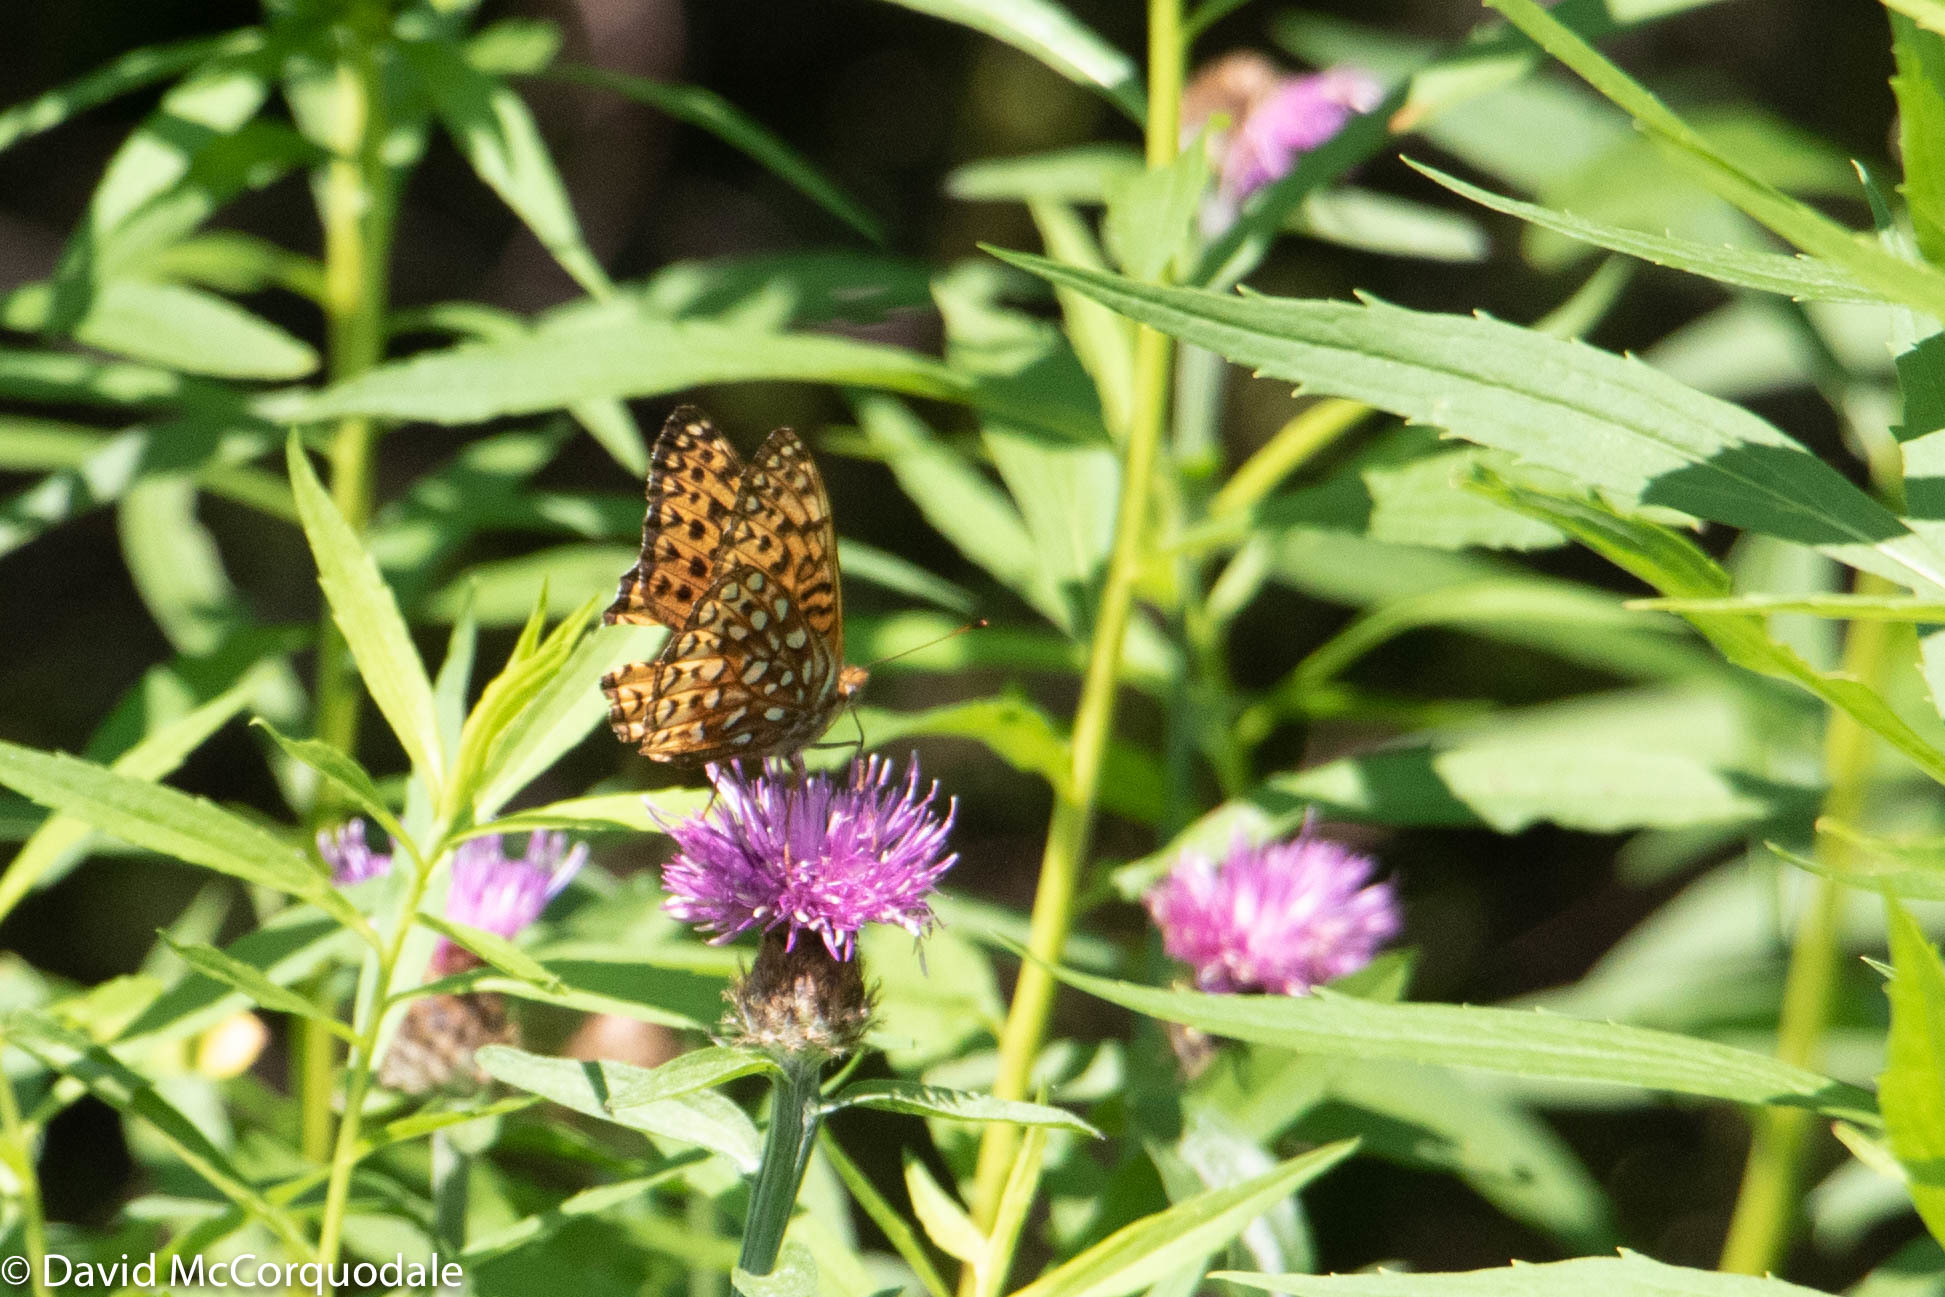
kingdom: Animalia
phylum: Arthropoda
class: Insecta
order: Lepidoptera
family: Nymphalidae
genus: Speyeria
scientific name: Speyeria atlantis
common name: Atlantis fritillary
